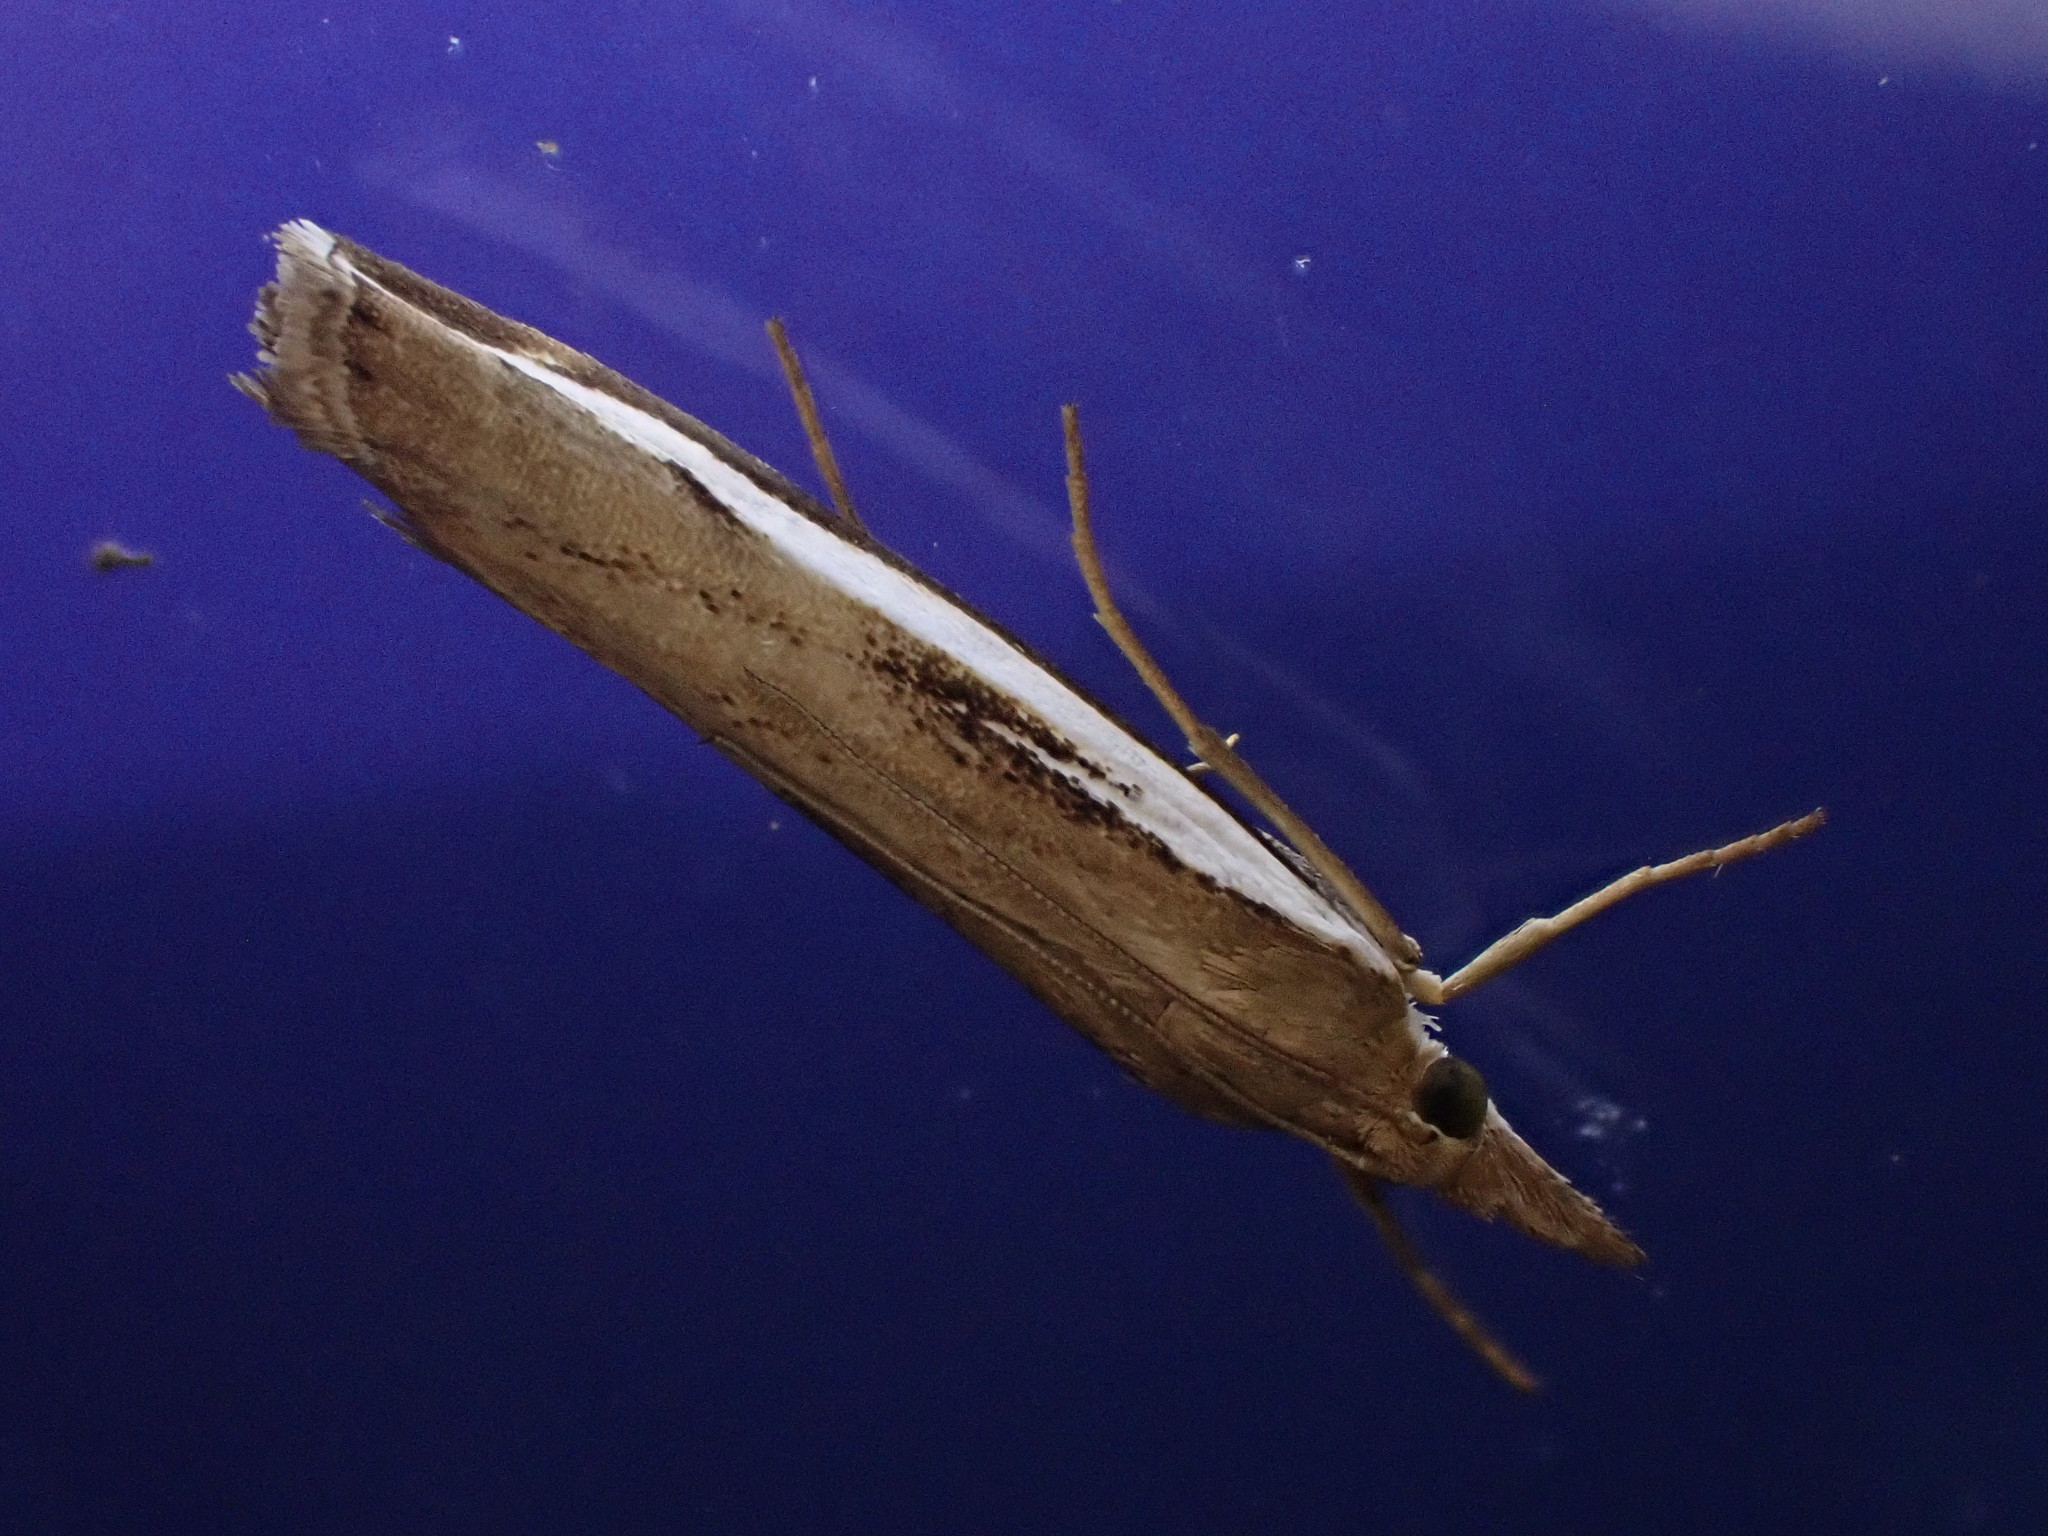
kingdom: Animalia
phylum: Arthropoda
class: Insecta
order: Lepidoptera
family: Crambidae
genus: Orocrambus
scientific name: Orocrambus flexuosellus
